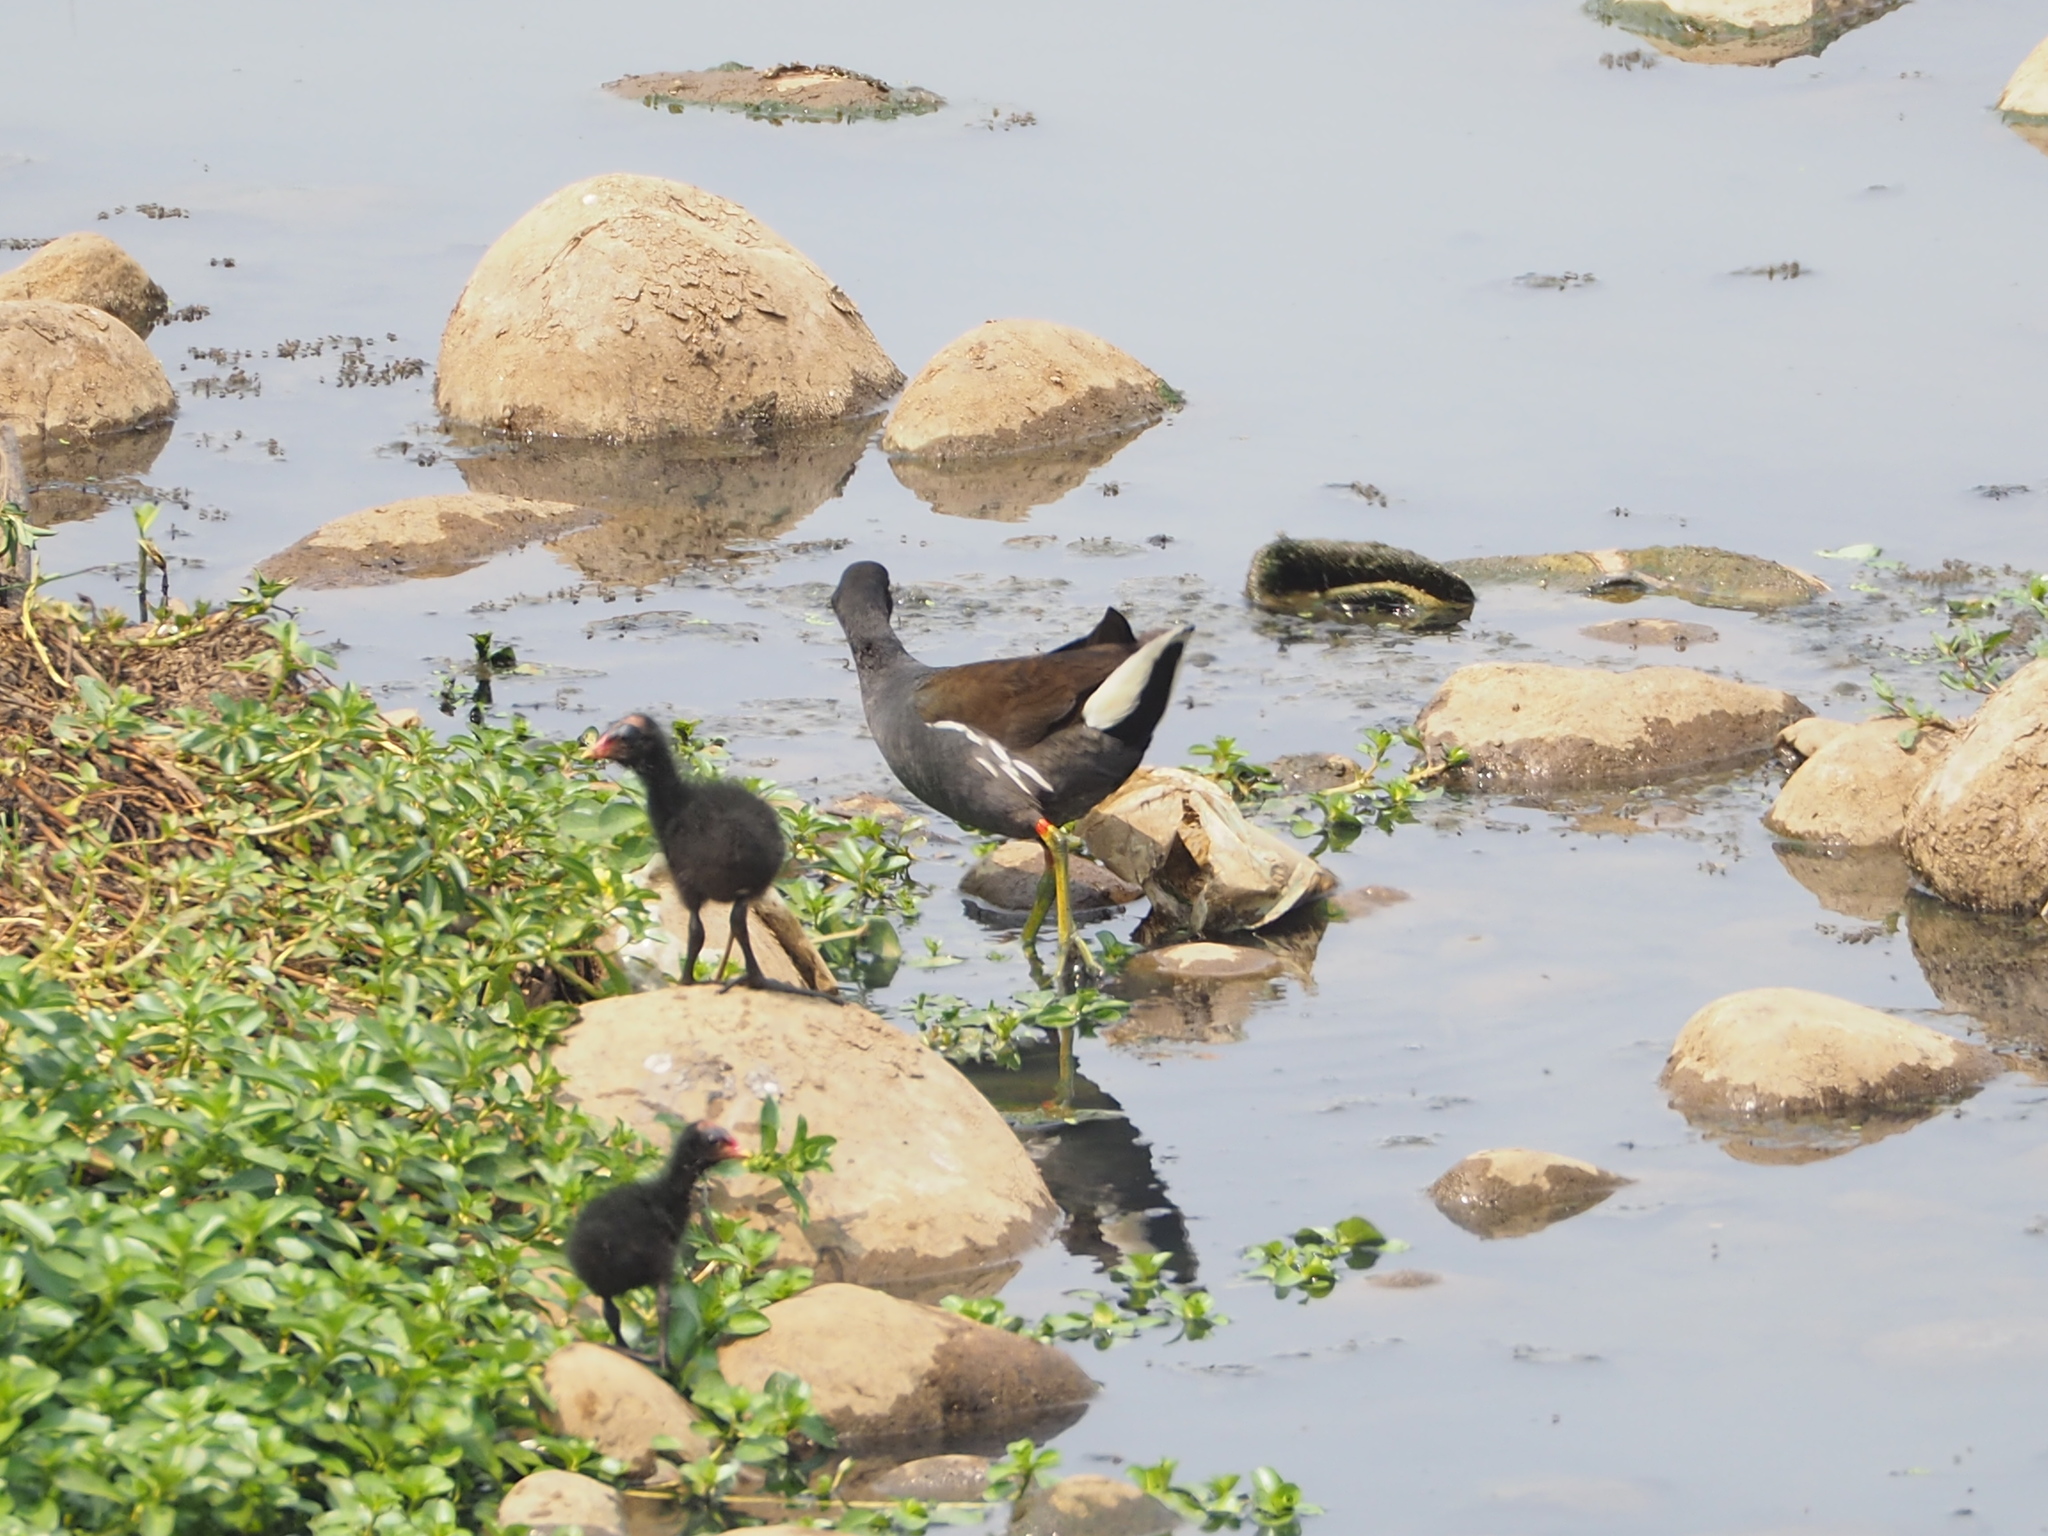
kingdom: Animalia
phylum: Chordata
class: Aves
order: Gruiformes
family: Rallidae
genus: Gallinula
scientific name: Gallinula chloropus
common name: Common moorhen
